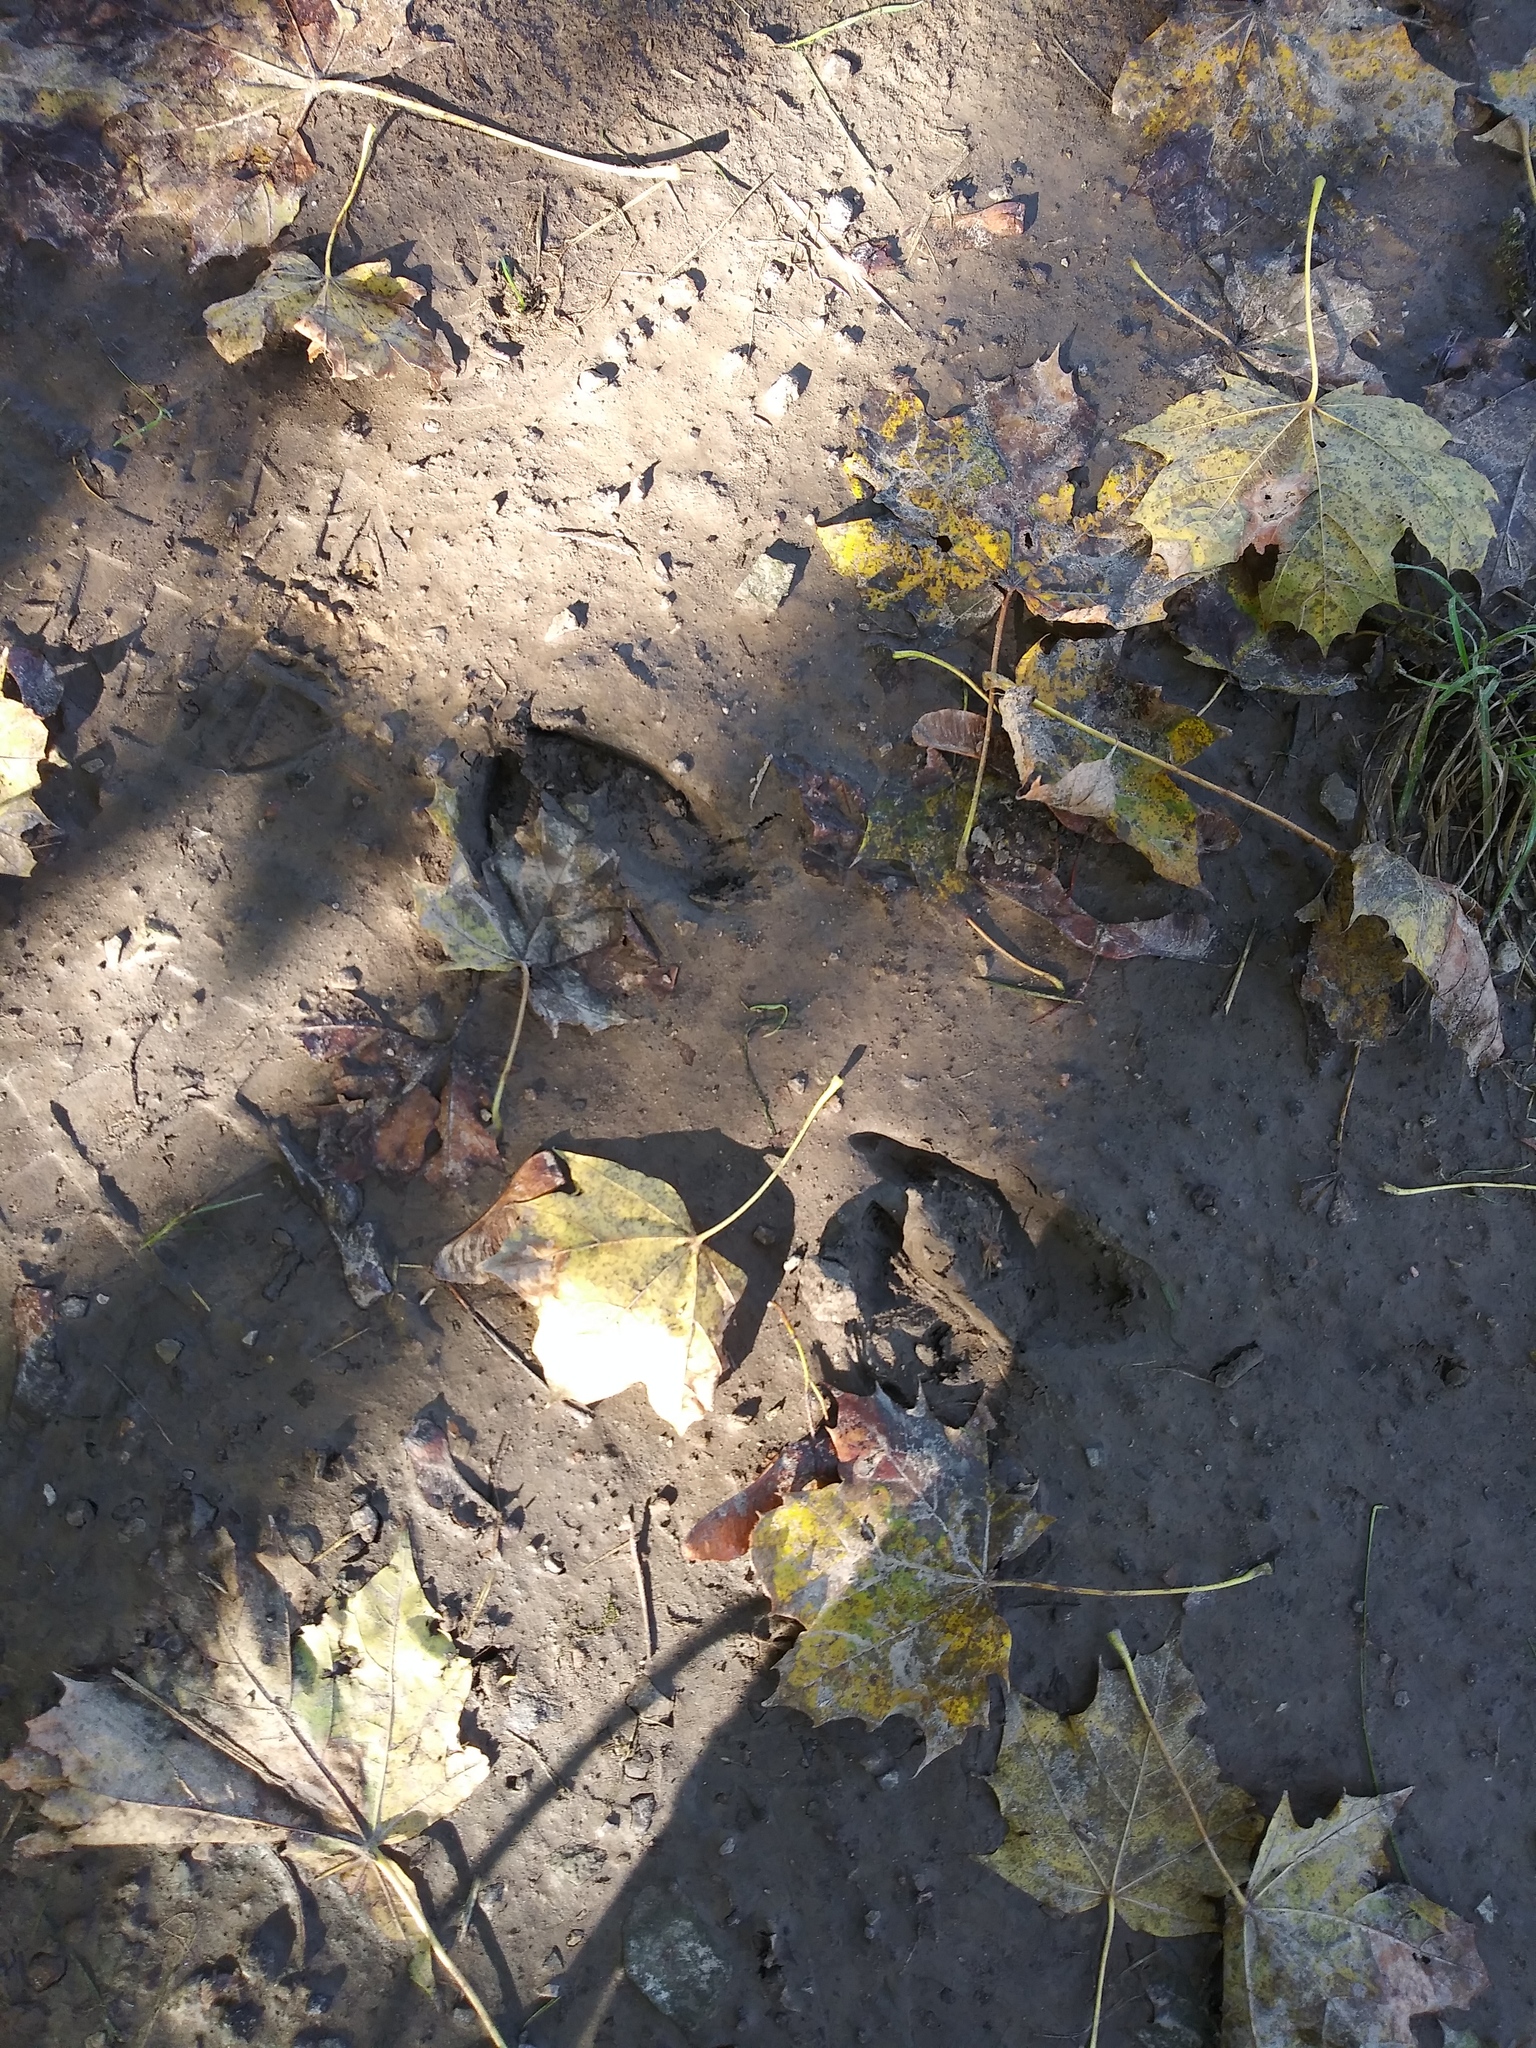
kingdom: Animalia
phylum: Chordata
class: Mammalia
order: Artiodactyla
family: Cervidae
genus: Odocoileus
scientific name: Odocoileus virginianus
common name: White-tailed deer
